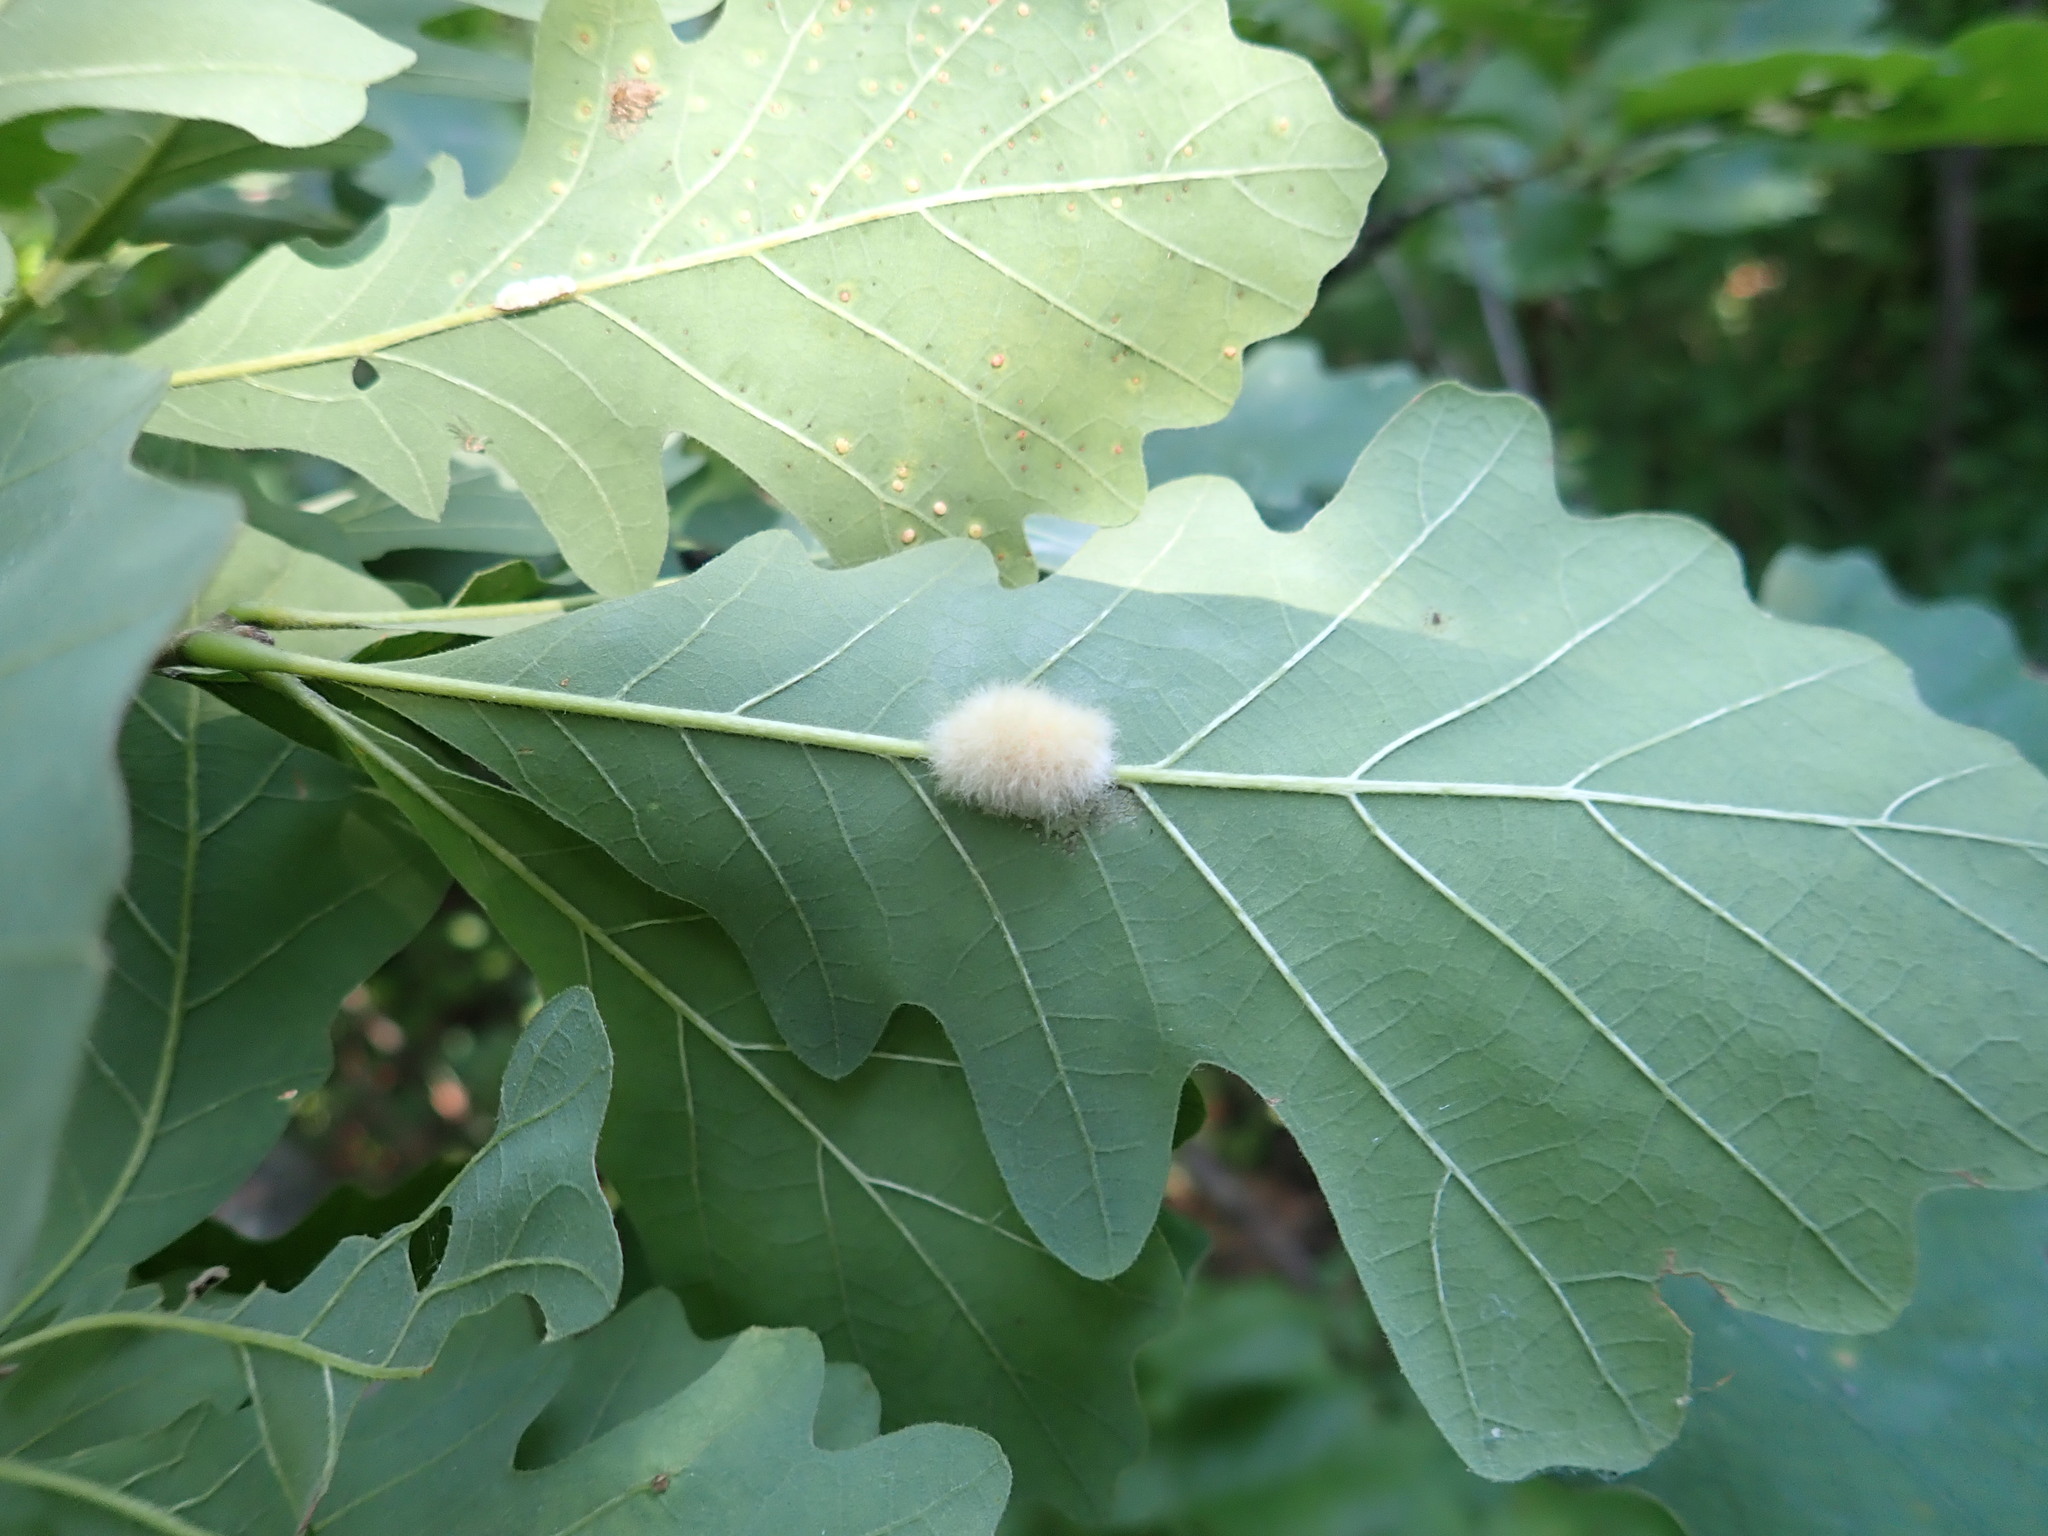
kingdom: Animalia
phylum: Arthropoda
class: Insecta
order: Hymenoptera
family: Cynipidae
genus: Andricus
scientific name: Andricus Druon ignotum
